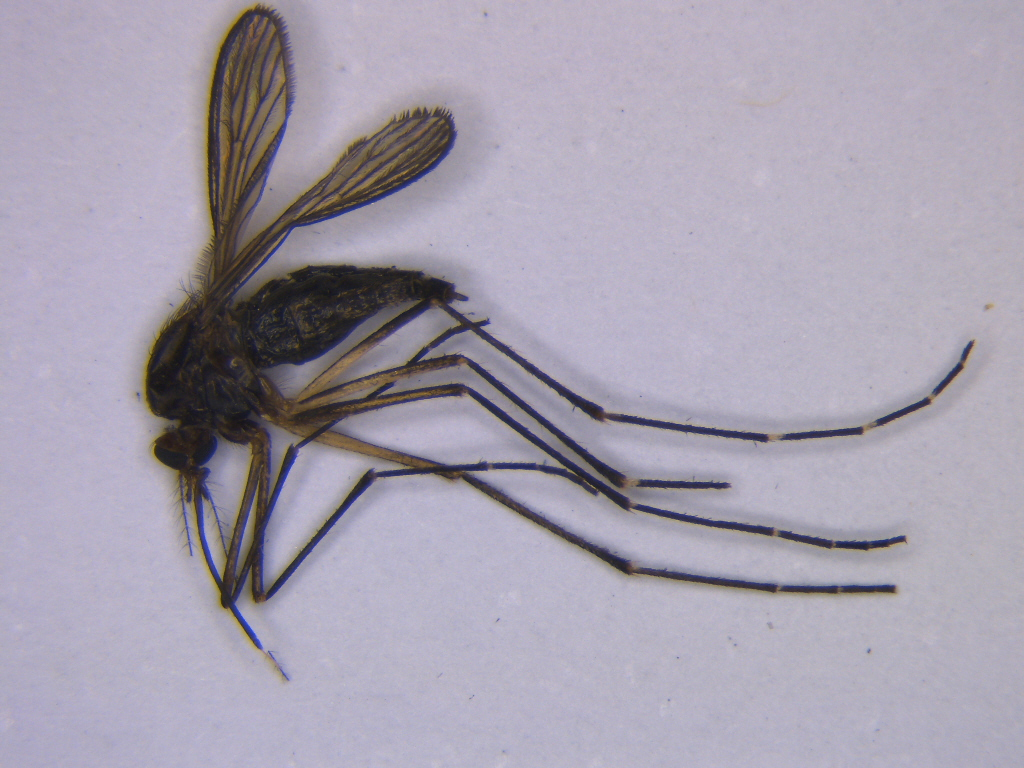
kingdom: Animalia
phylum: Arthropoda
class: Insecta
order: Diptera
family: Culicidae
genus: Aedes
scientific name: Aedes antipodeus
